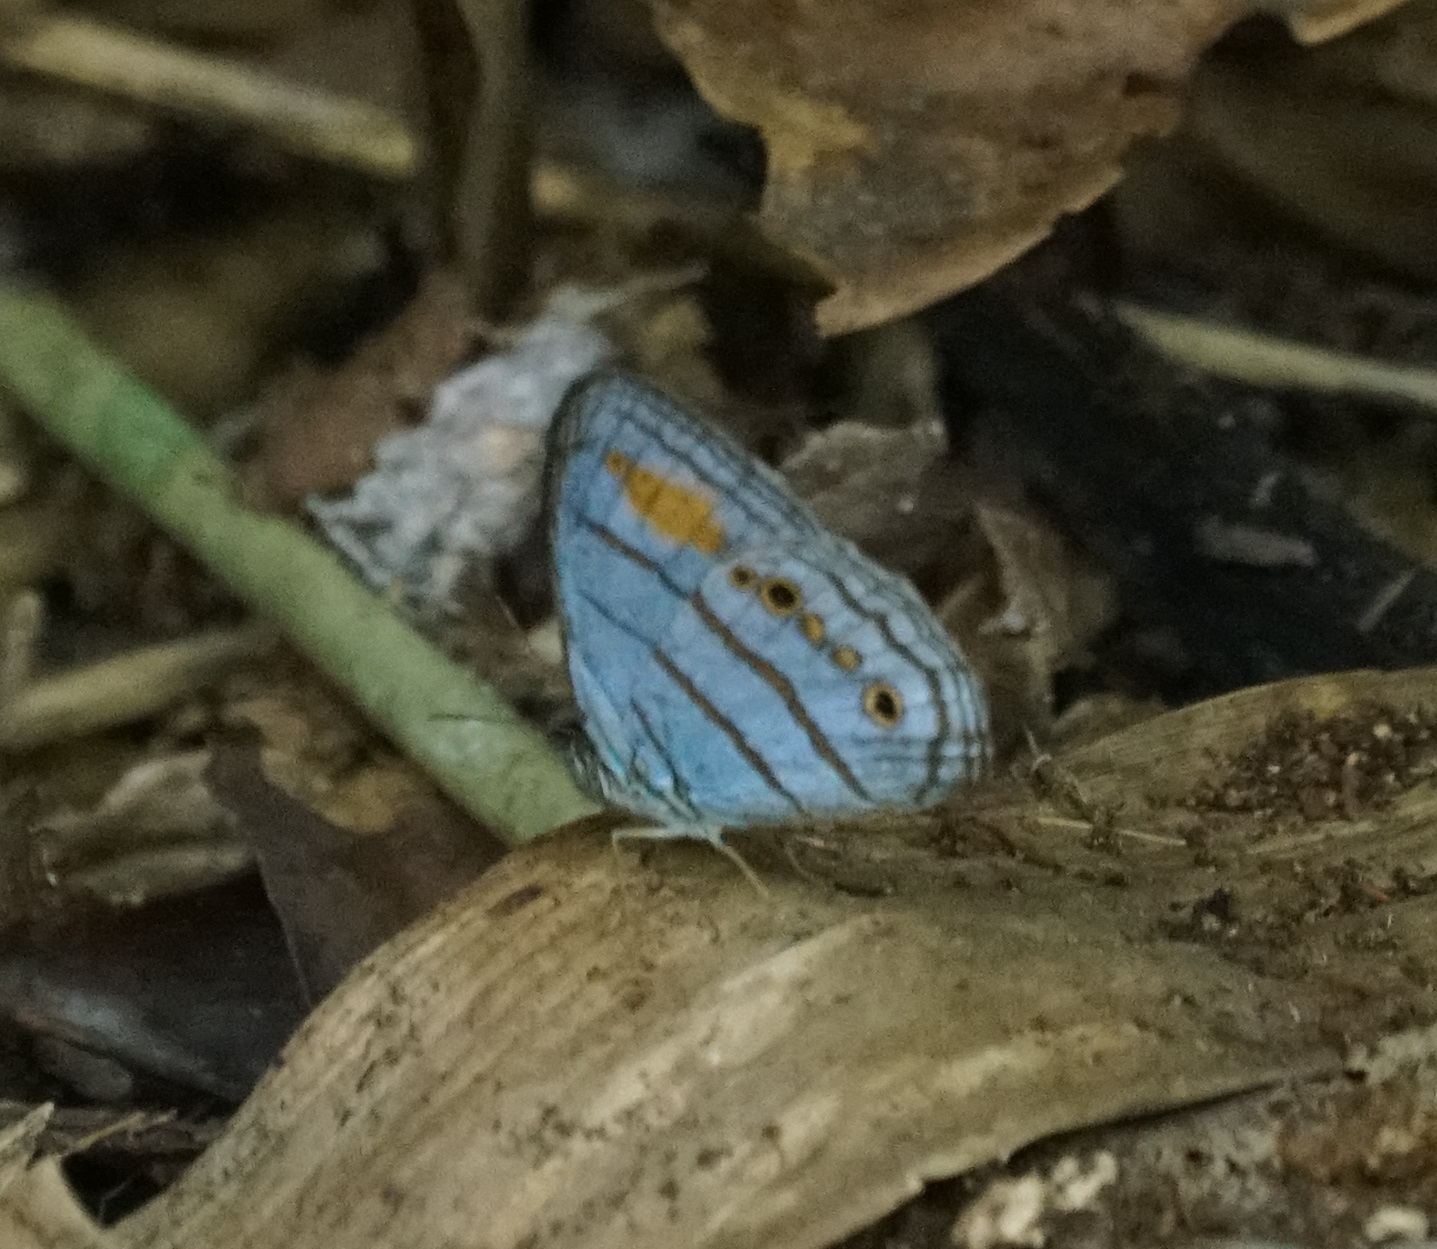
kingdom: Animalia
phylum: Arthropoda
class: Insecta
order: Lepidoptera
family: Nymphalidae
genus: Caeruleuptychia
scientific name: Caeruleuptychia helios
